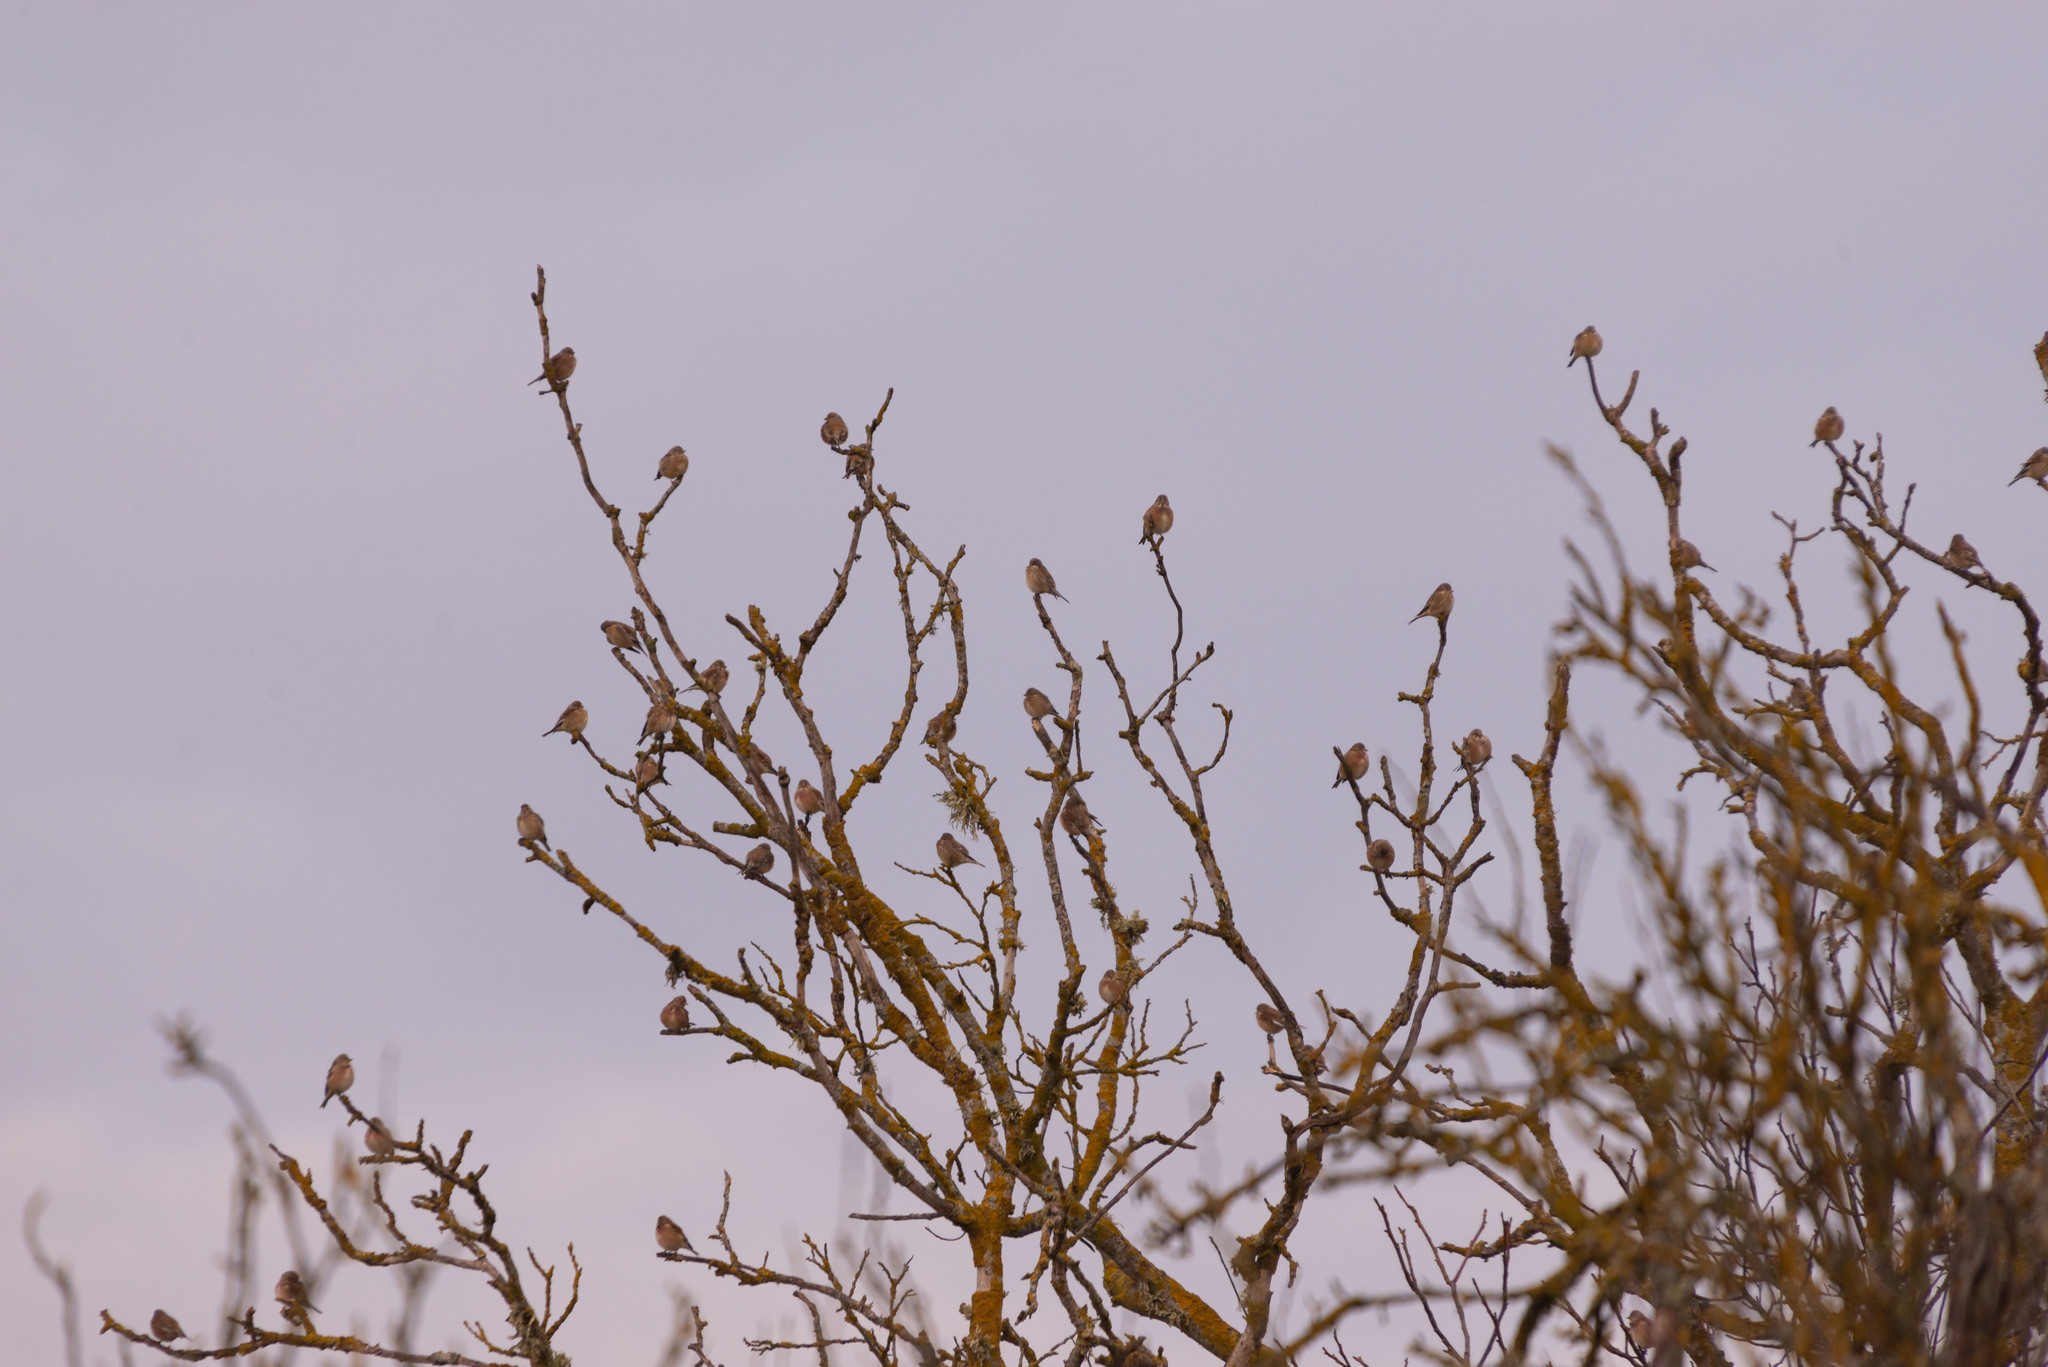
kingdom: Animalia
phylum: Chordata
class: Aves
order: Passeriformes
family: Fringillidae
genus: Linaria
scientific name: Linaria cannabina
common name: Common linnet
